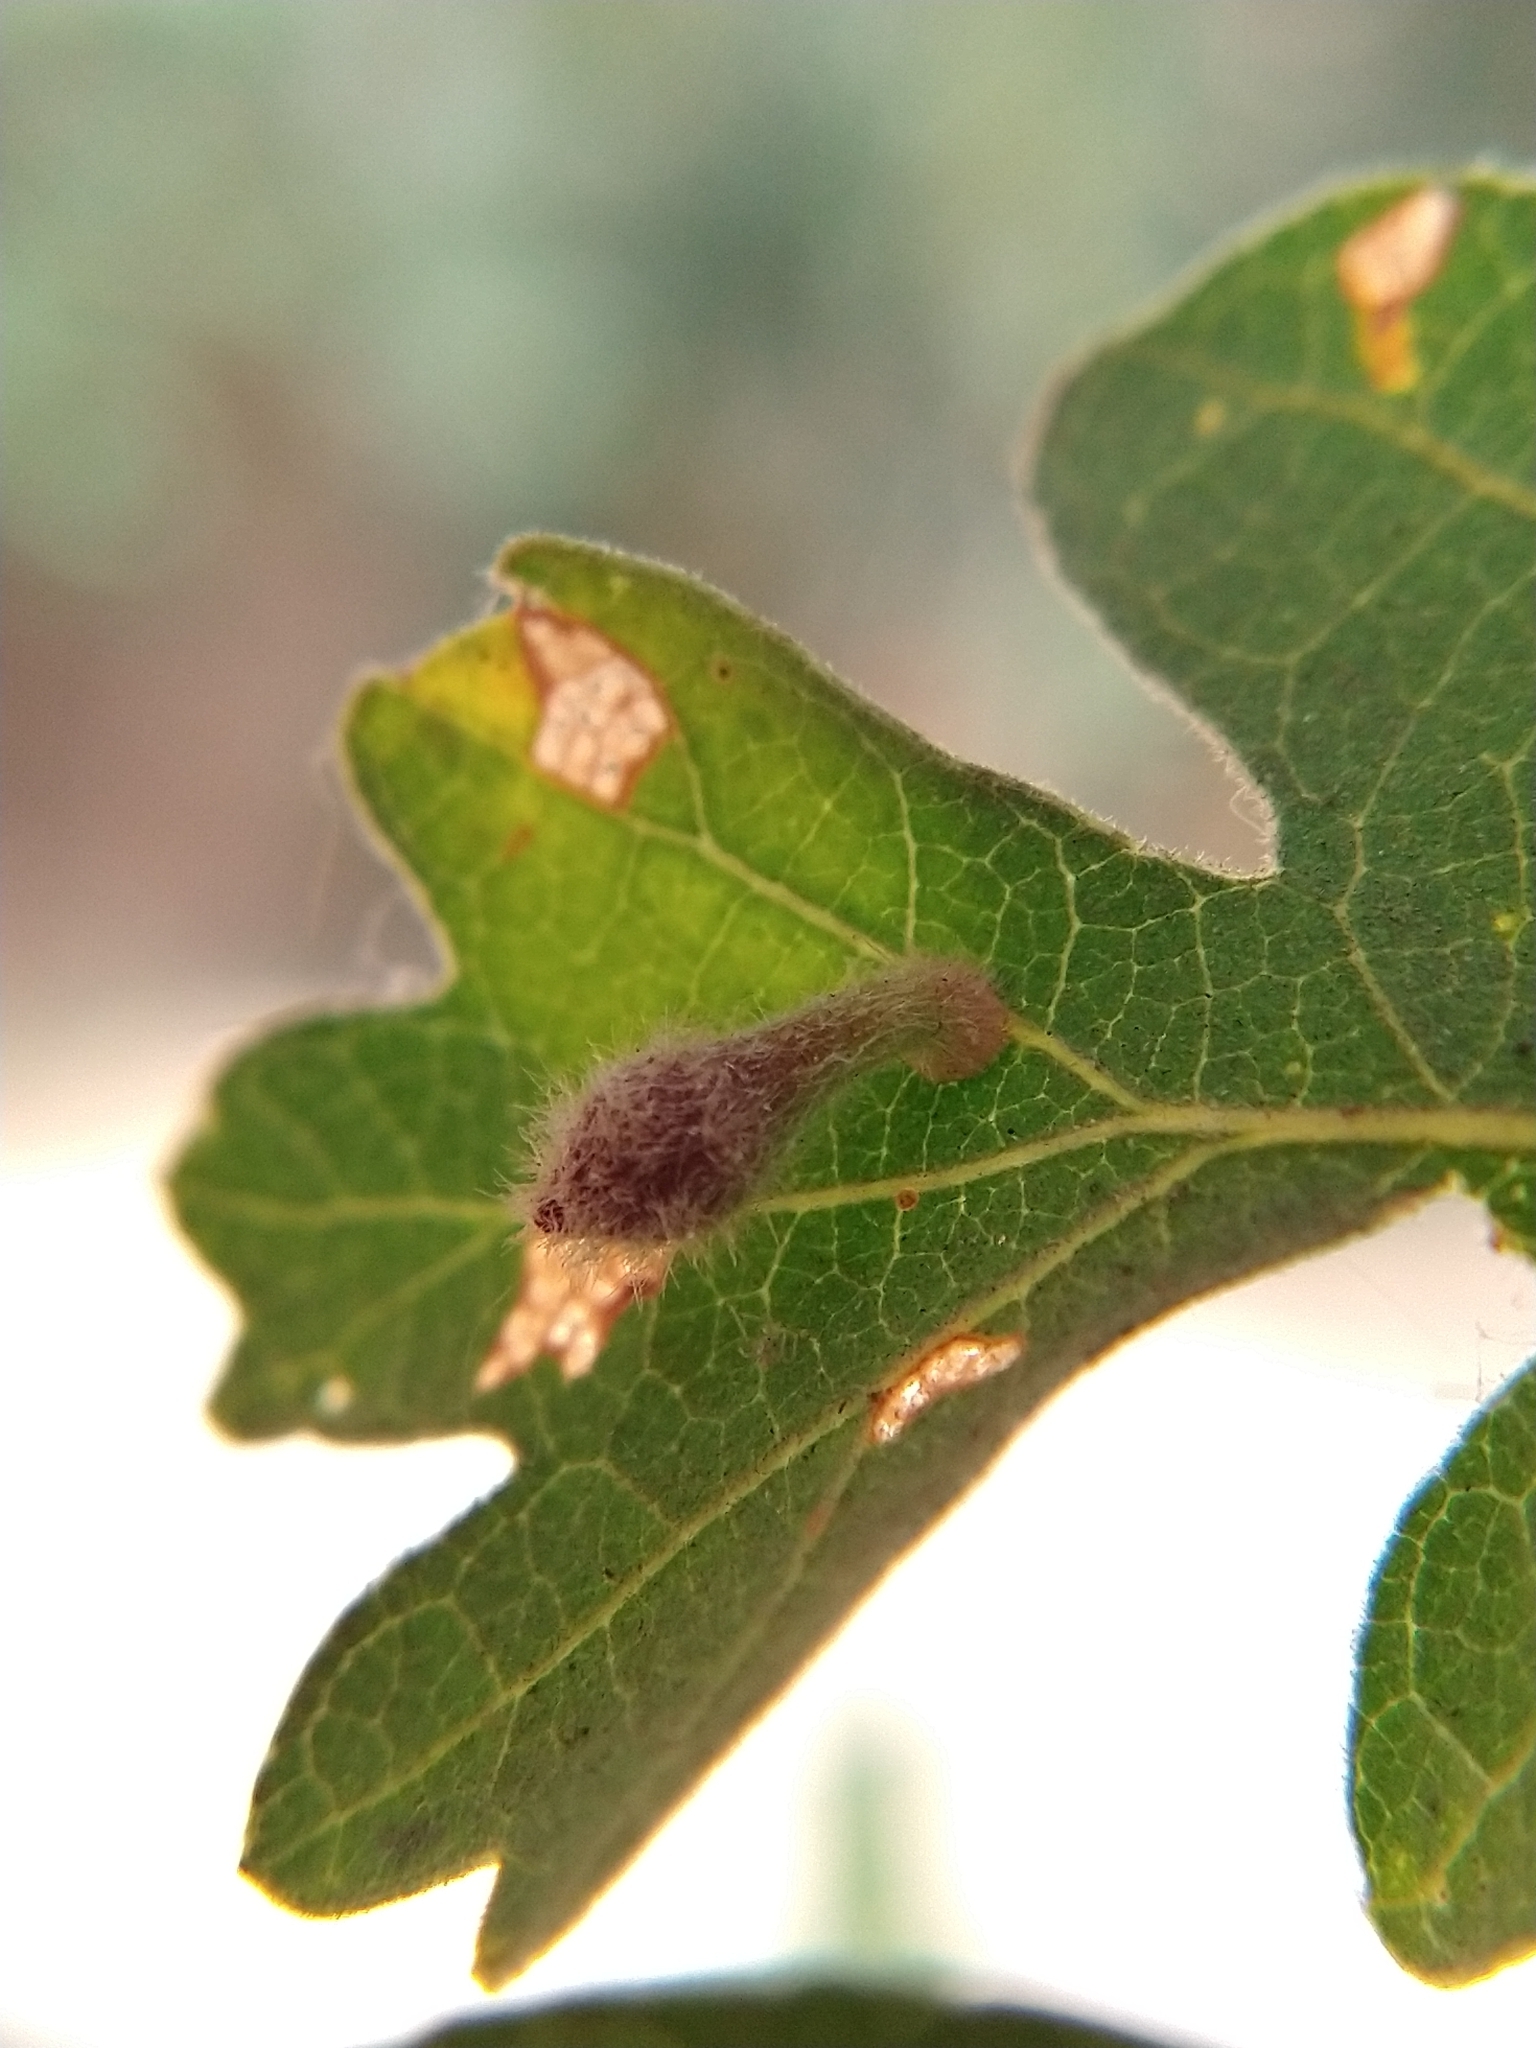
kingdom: Animalia
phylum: Arthropoda
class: Insecta
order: Hymenoptera
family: Cynipidae
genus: Atrusca
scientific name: Atrusca
